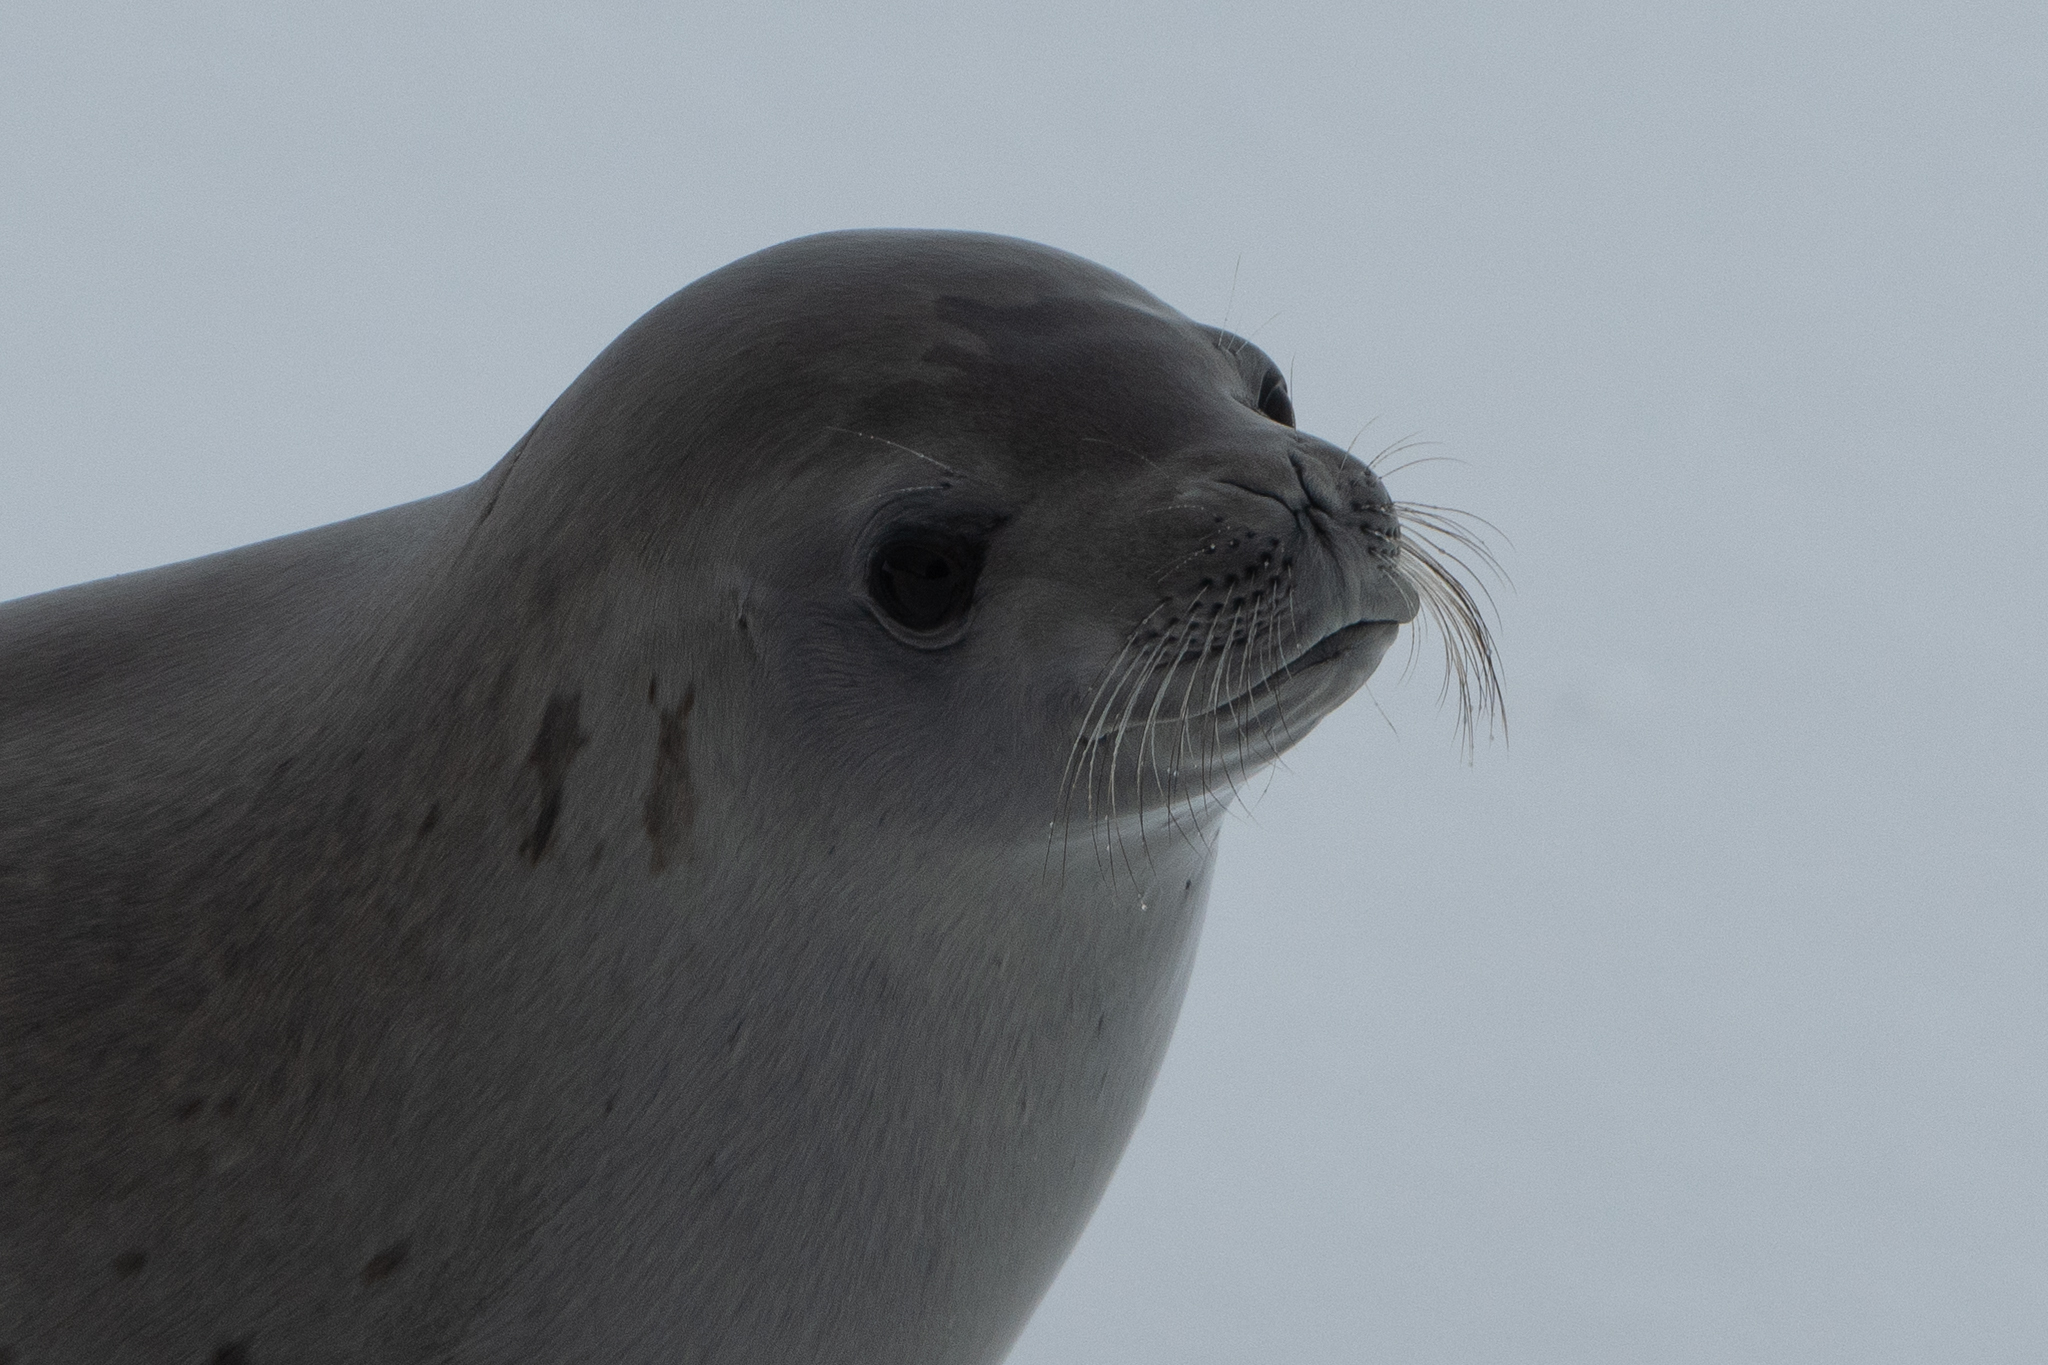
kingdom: Animalia
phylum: Chordata
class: Mammalia
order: Carnivora
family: Phocidae
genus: Lobodon
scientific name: Lobodon carcinophaga
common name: Crabeater seal
